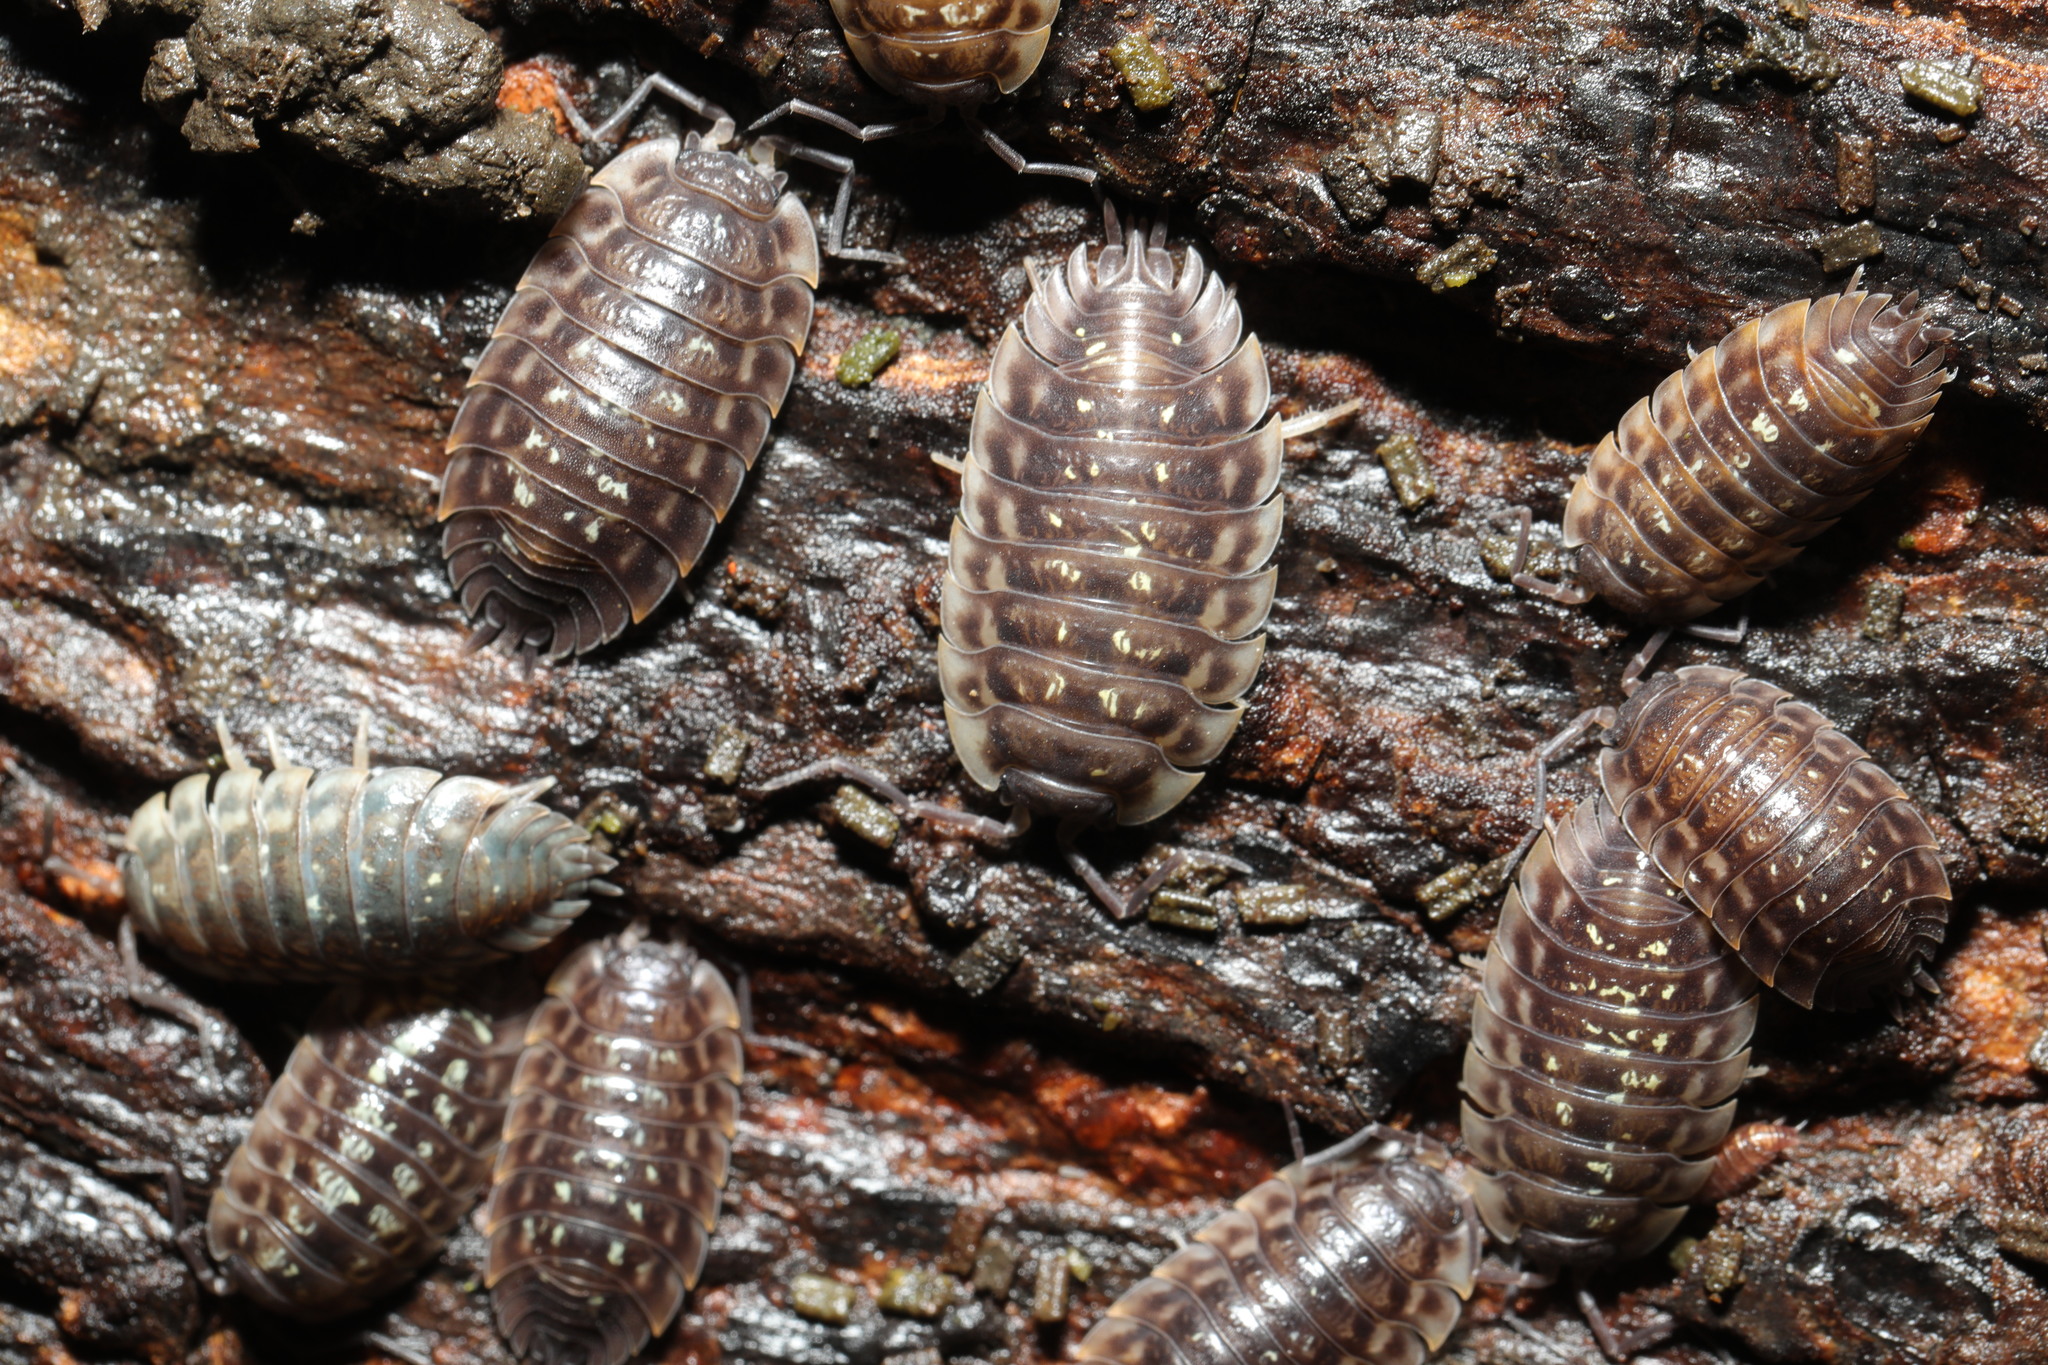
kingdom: Animalia
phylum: Arthropoda
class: Malacostraca
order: Isopoda
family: Oniscidae
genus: Oniscus
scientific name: Oniscus asellus
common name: Common shiny woodlouse
